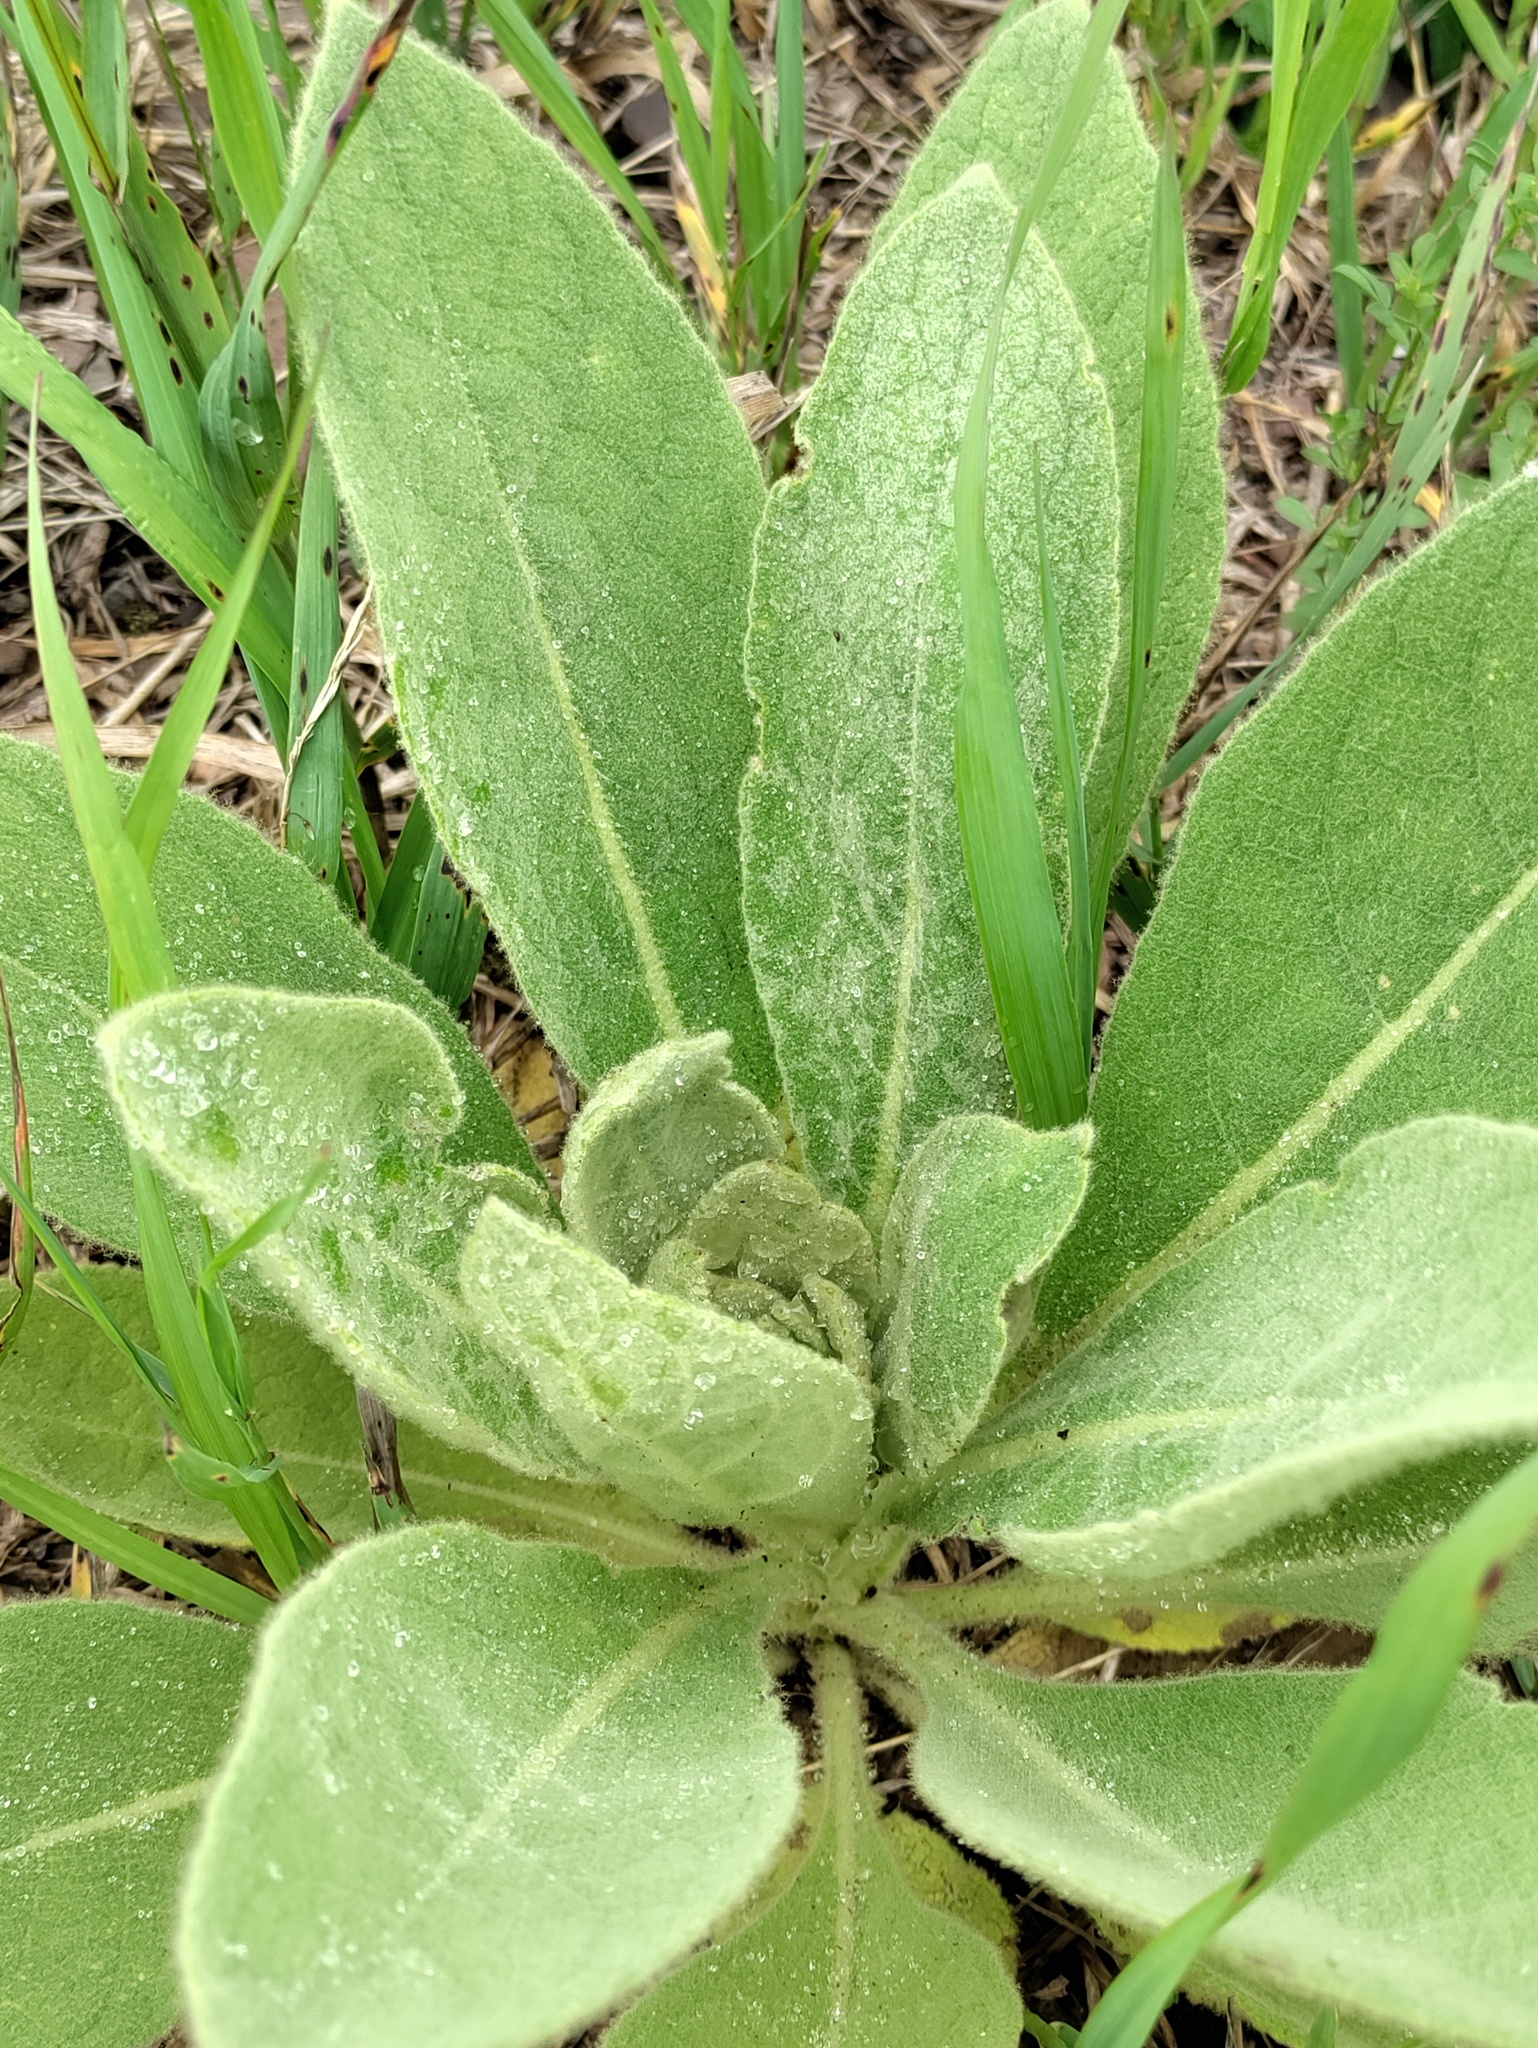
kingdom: Plantae
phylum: Tracheophyta
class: Magnoliopsida
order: Lamiales
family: Scrophulariaceae
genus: Verbascum
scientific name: Verbascum thapsus
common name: Common mullein
